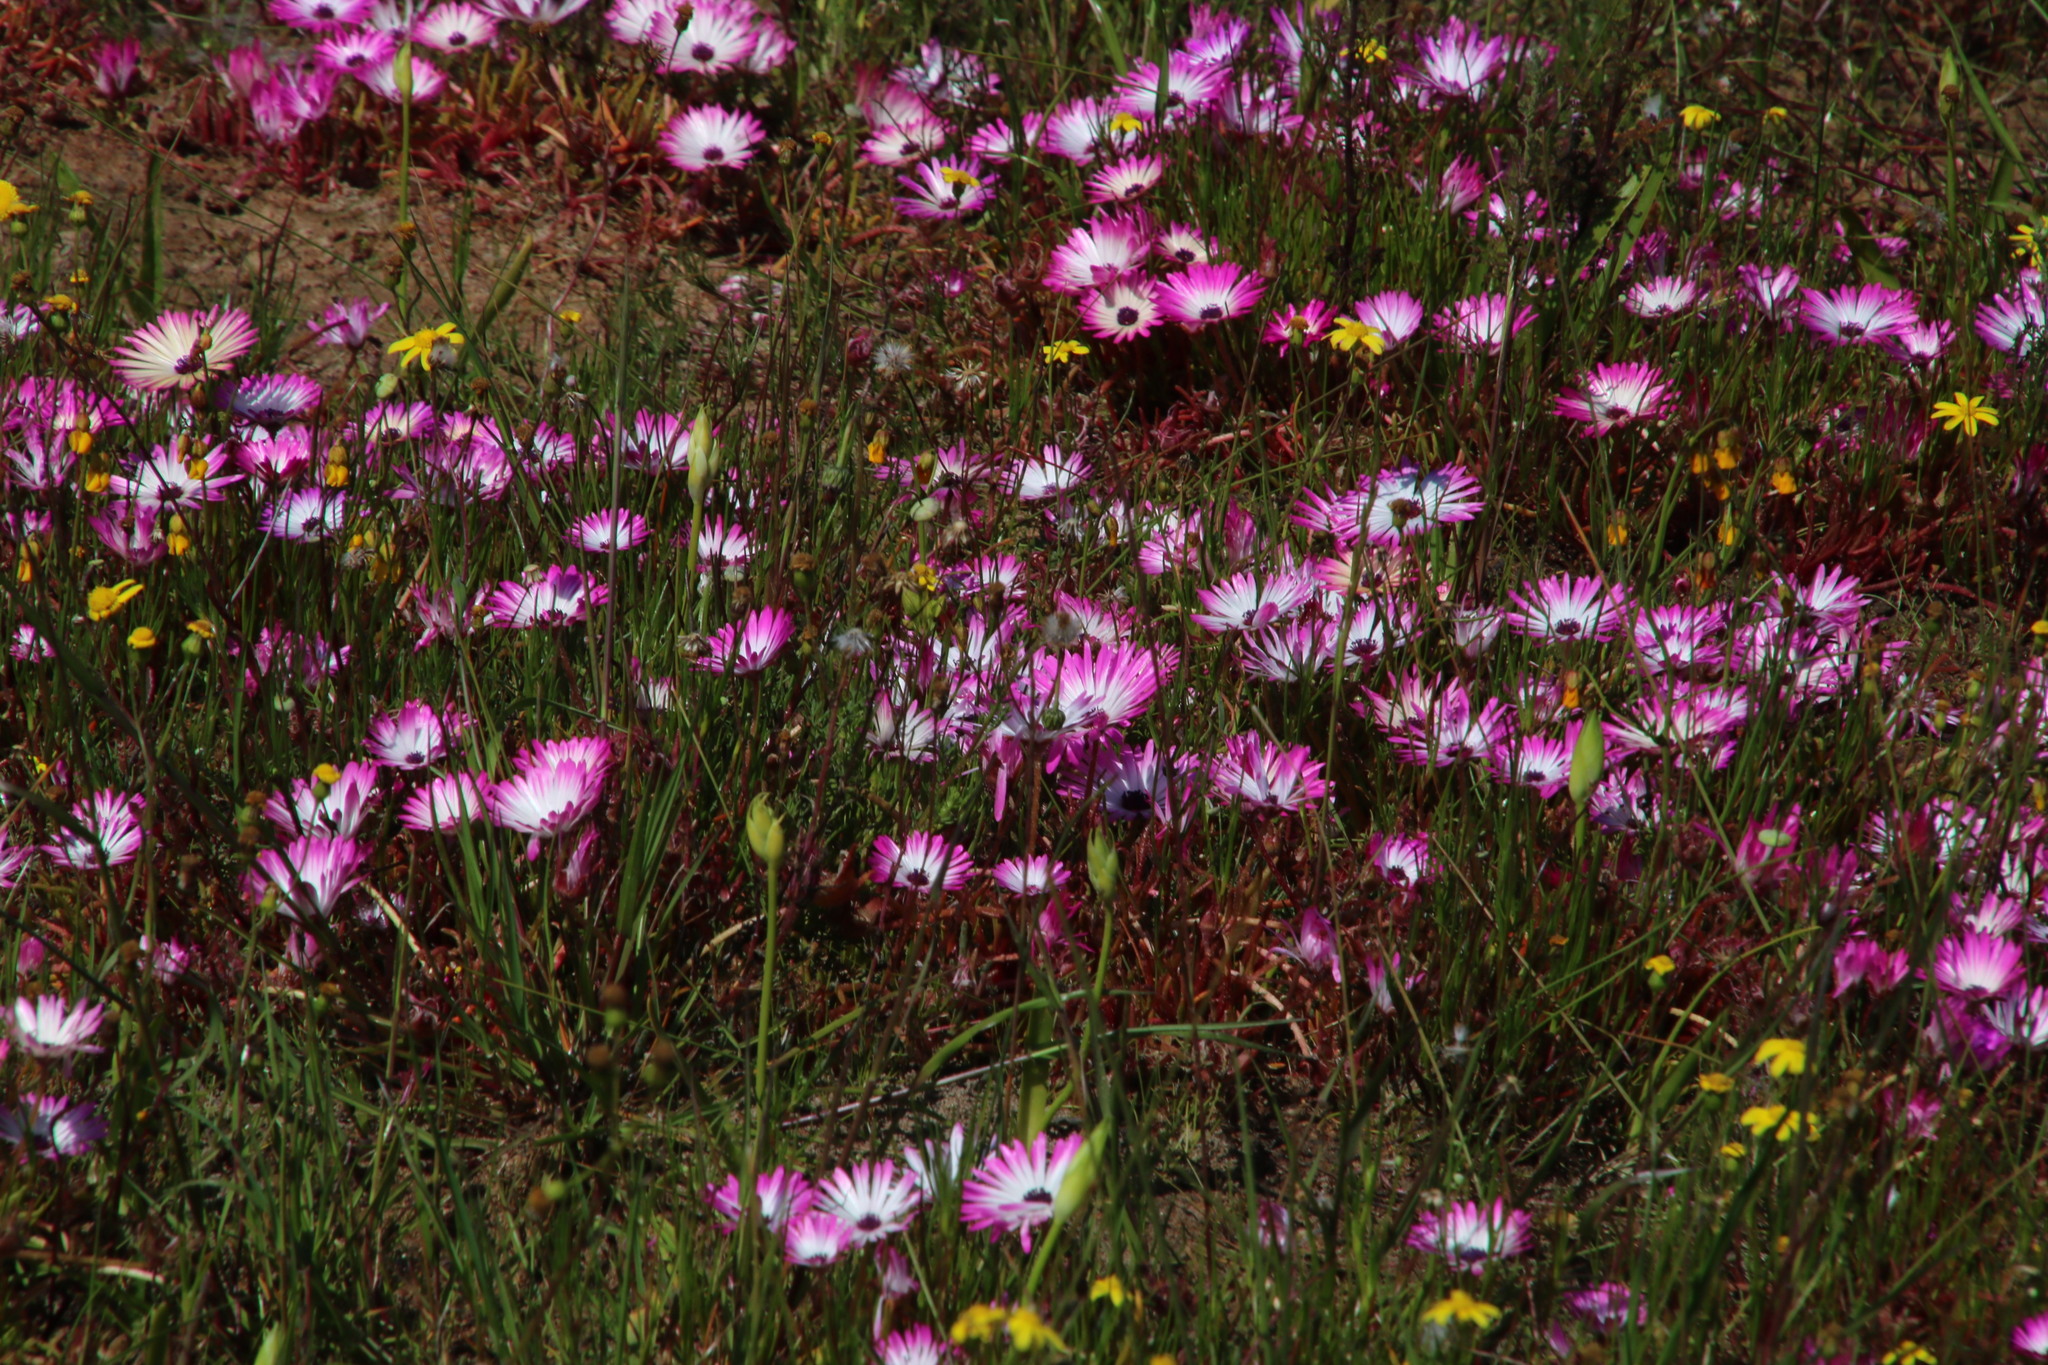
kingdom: Plantae
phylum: Tracheophyta
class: Magnoliopsida
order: Caryophyllales
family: Aizoaceae
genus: Cleretum
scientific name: Cleretum bellidiforme
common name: Livingstone daisy
